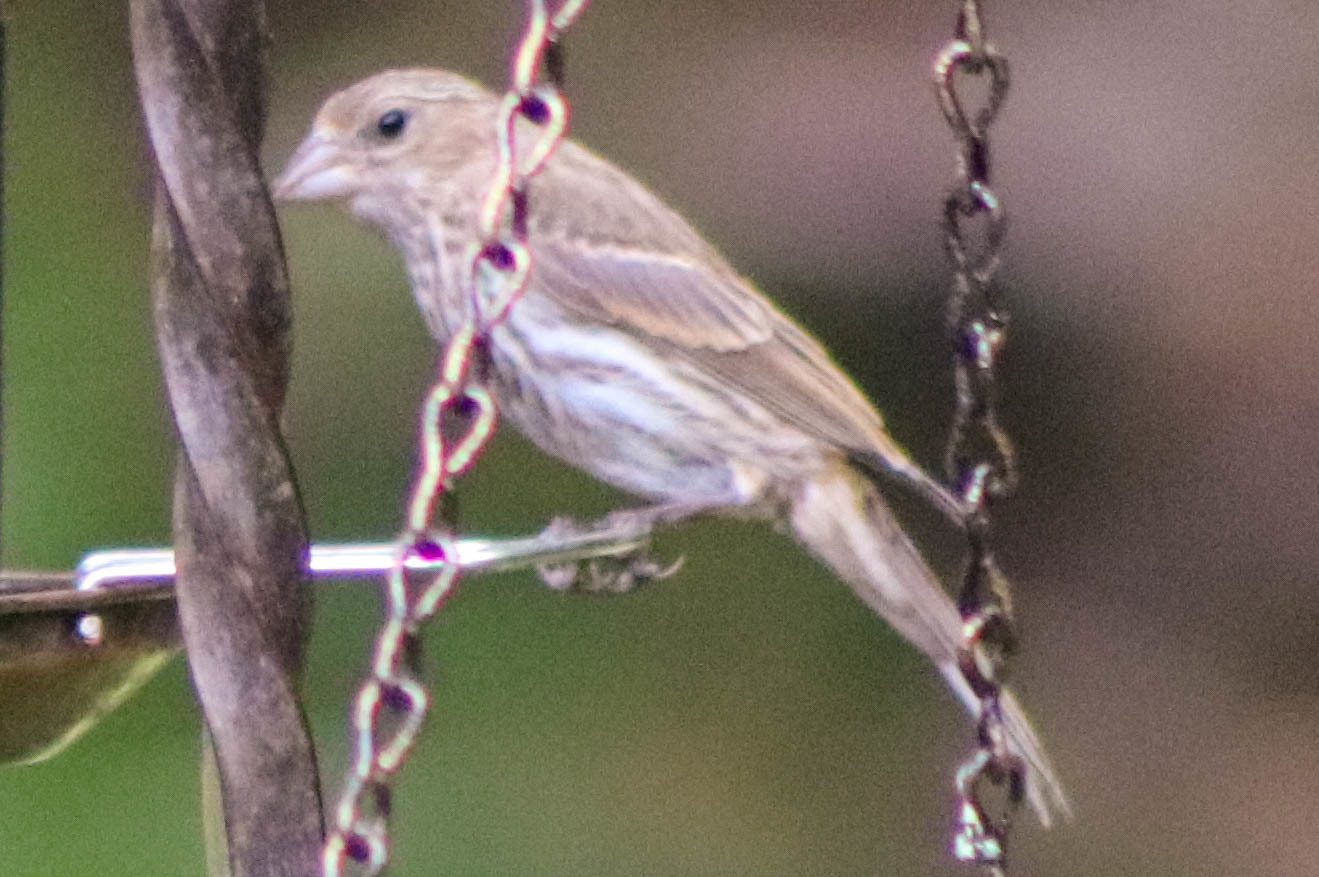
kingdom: Animalia
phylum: Chordata
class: Aves
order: Passeriformes
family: Fringillidae
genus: Haemorhous
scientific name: Haemorhous mexicanus
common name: House finch
